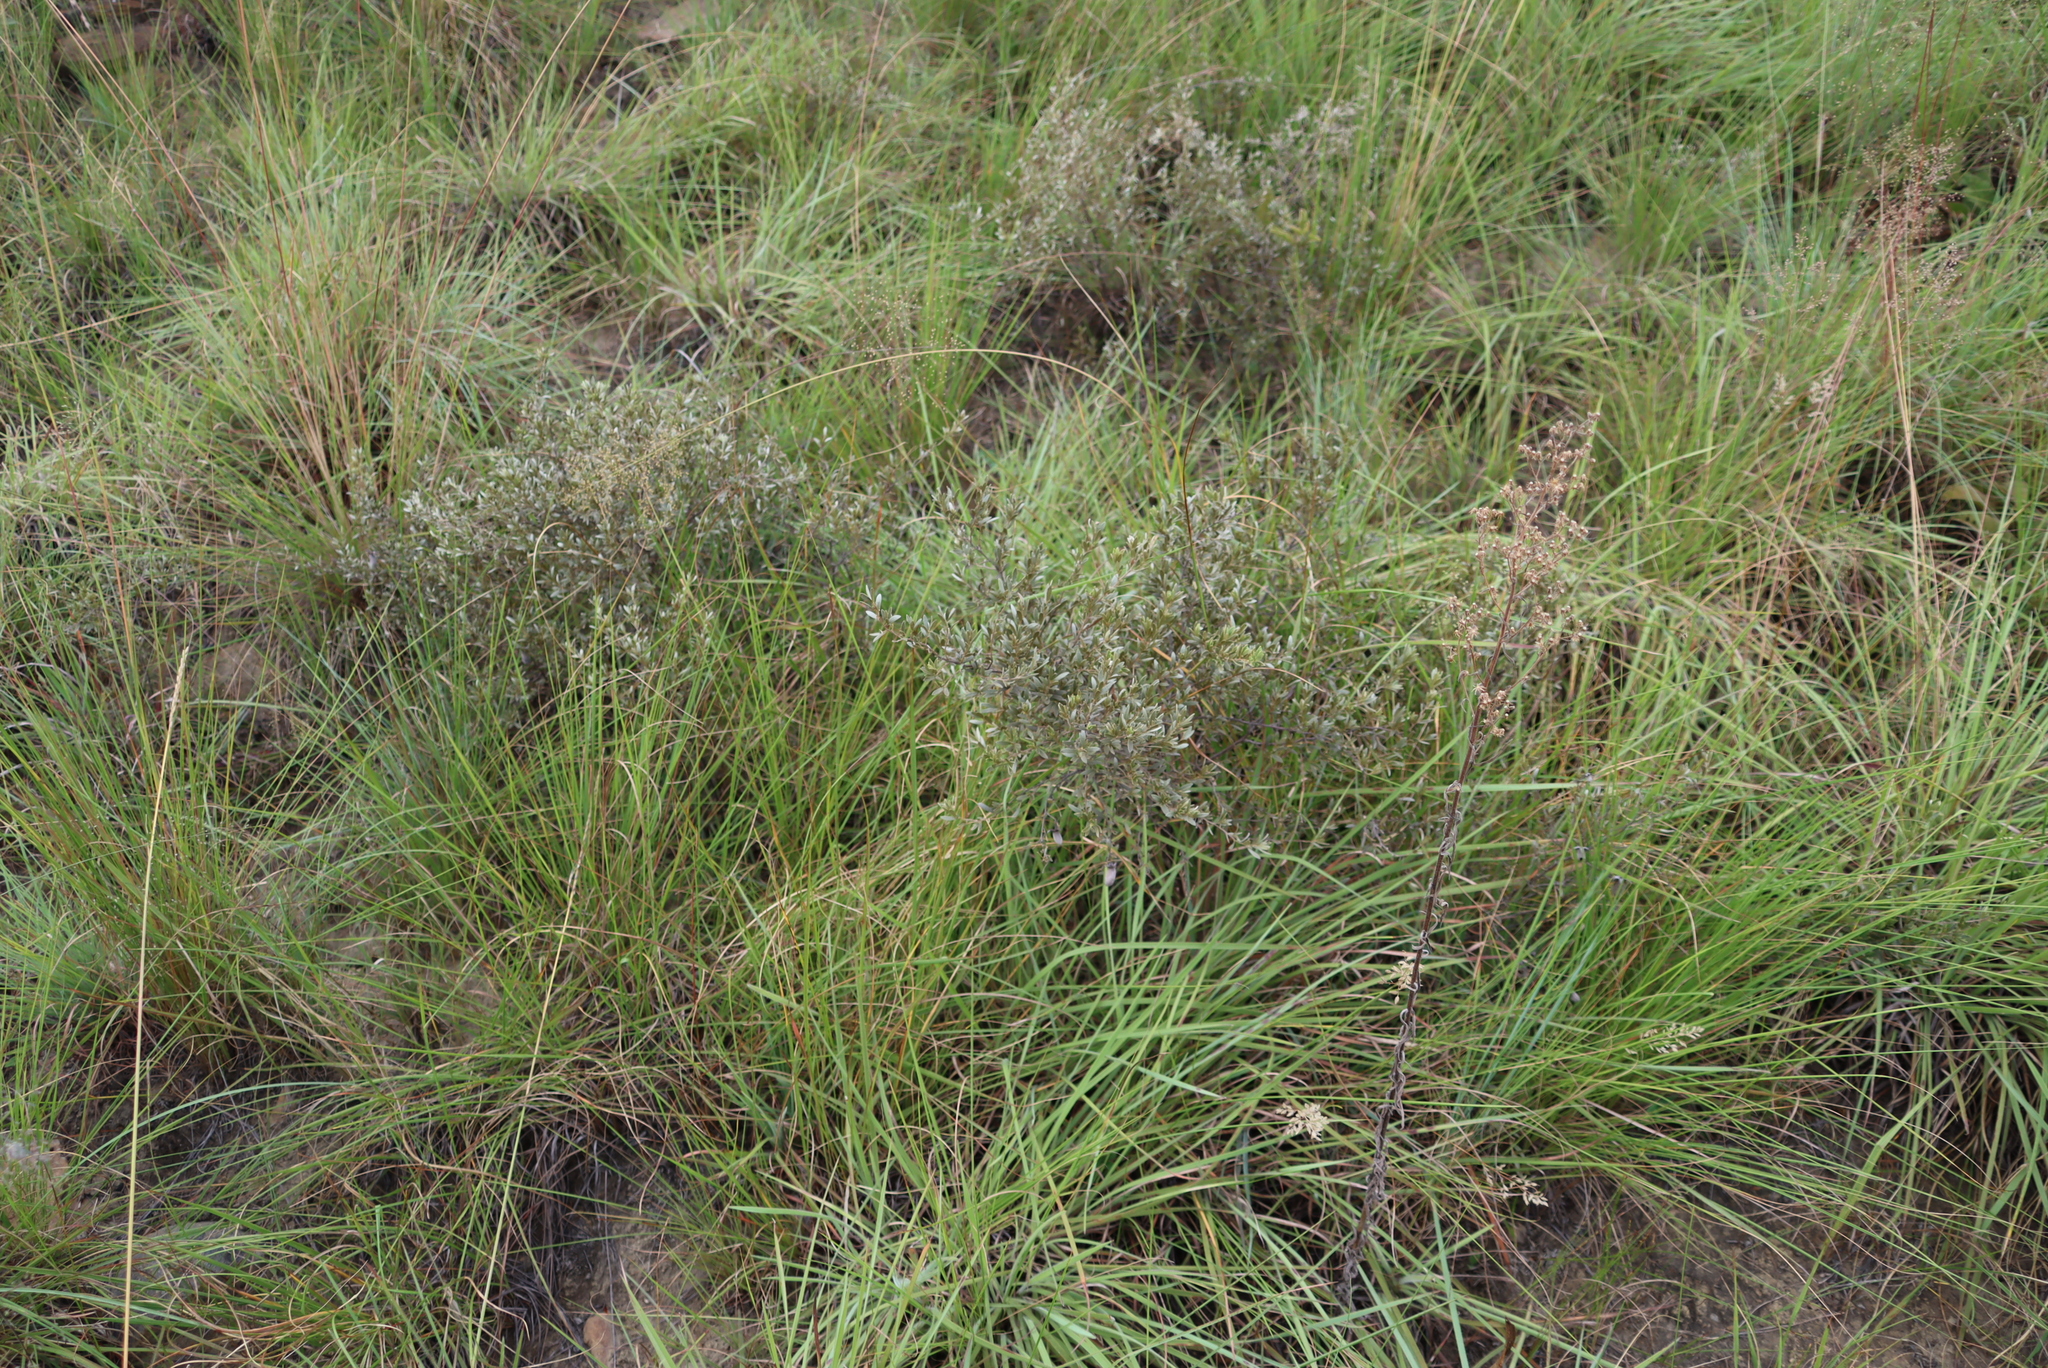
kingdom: Plantae
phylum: Tracheophyta
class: Magnoliopsida
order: Asterales
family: Asteraceae
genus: Athrixia
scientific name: Athrixia phylicoides
